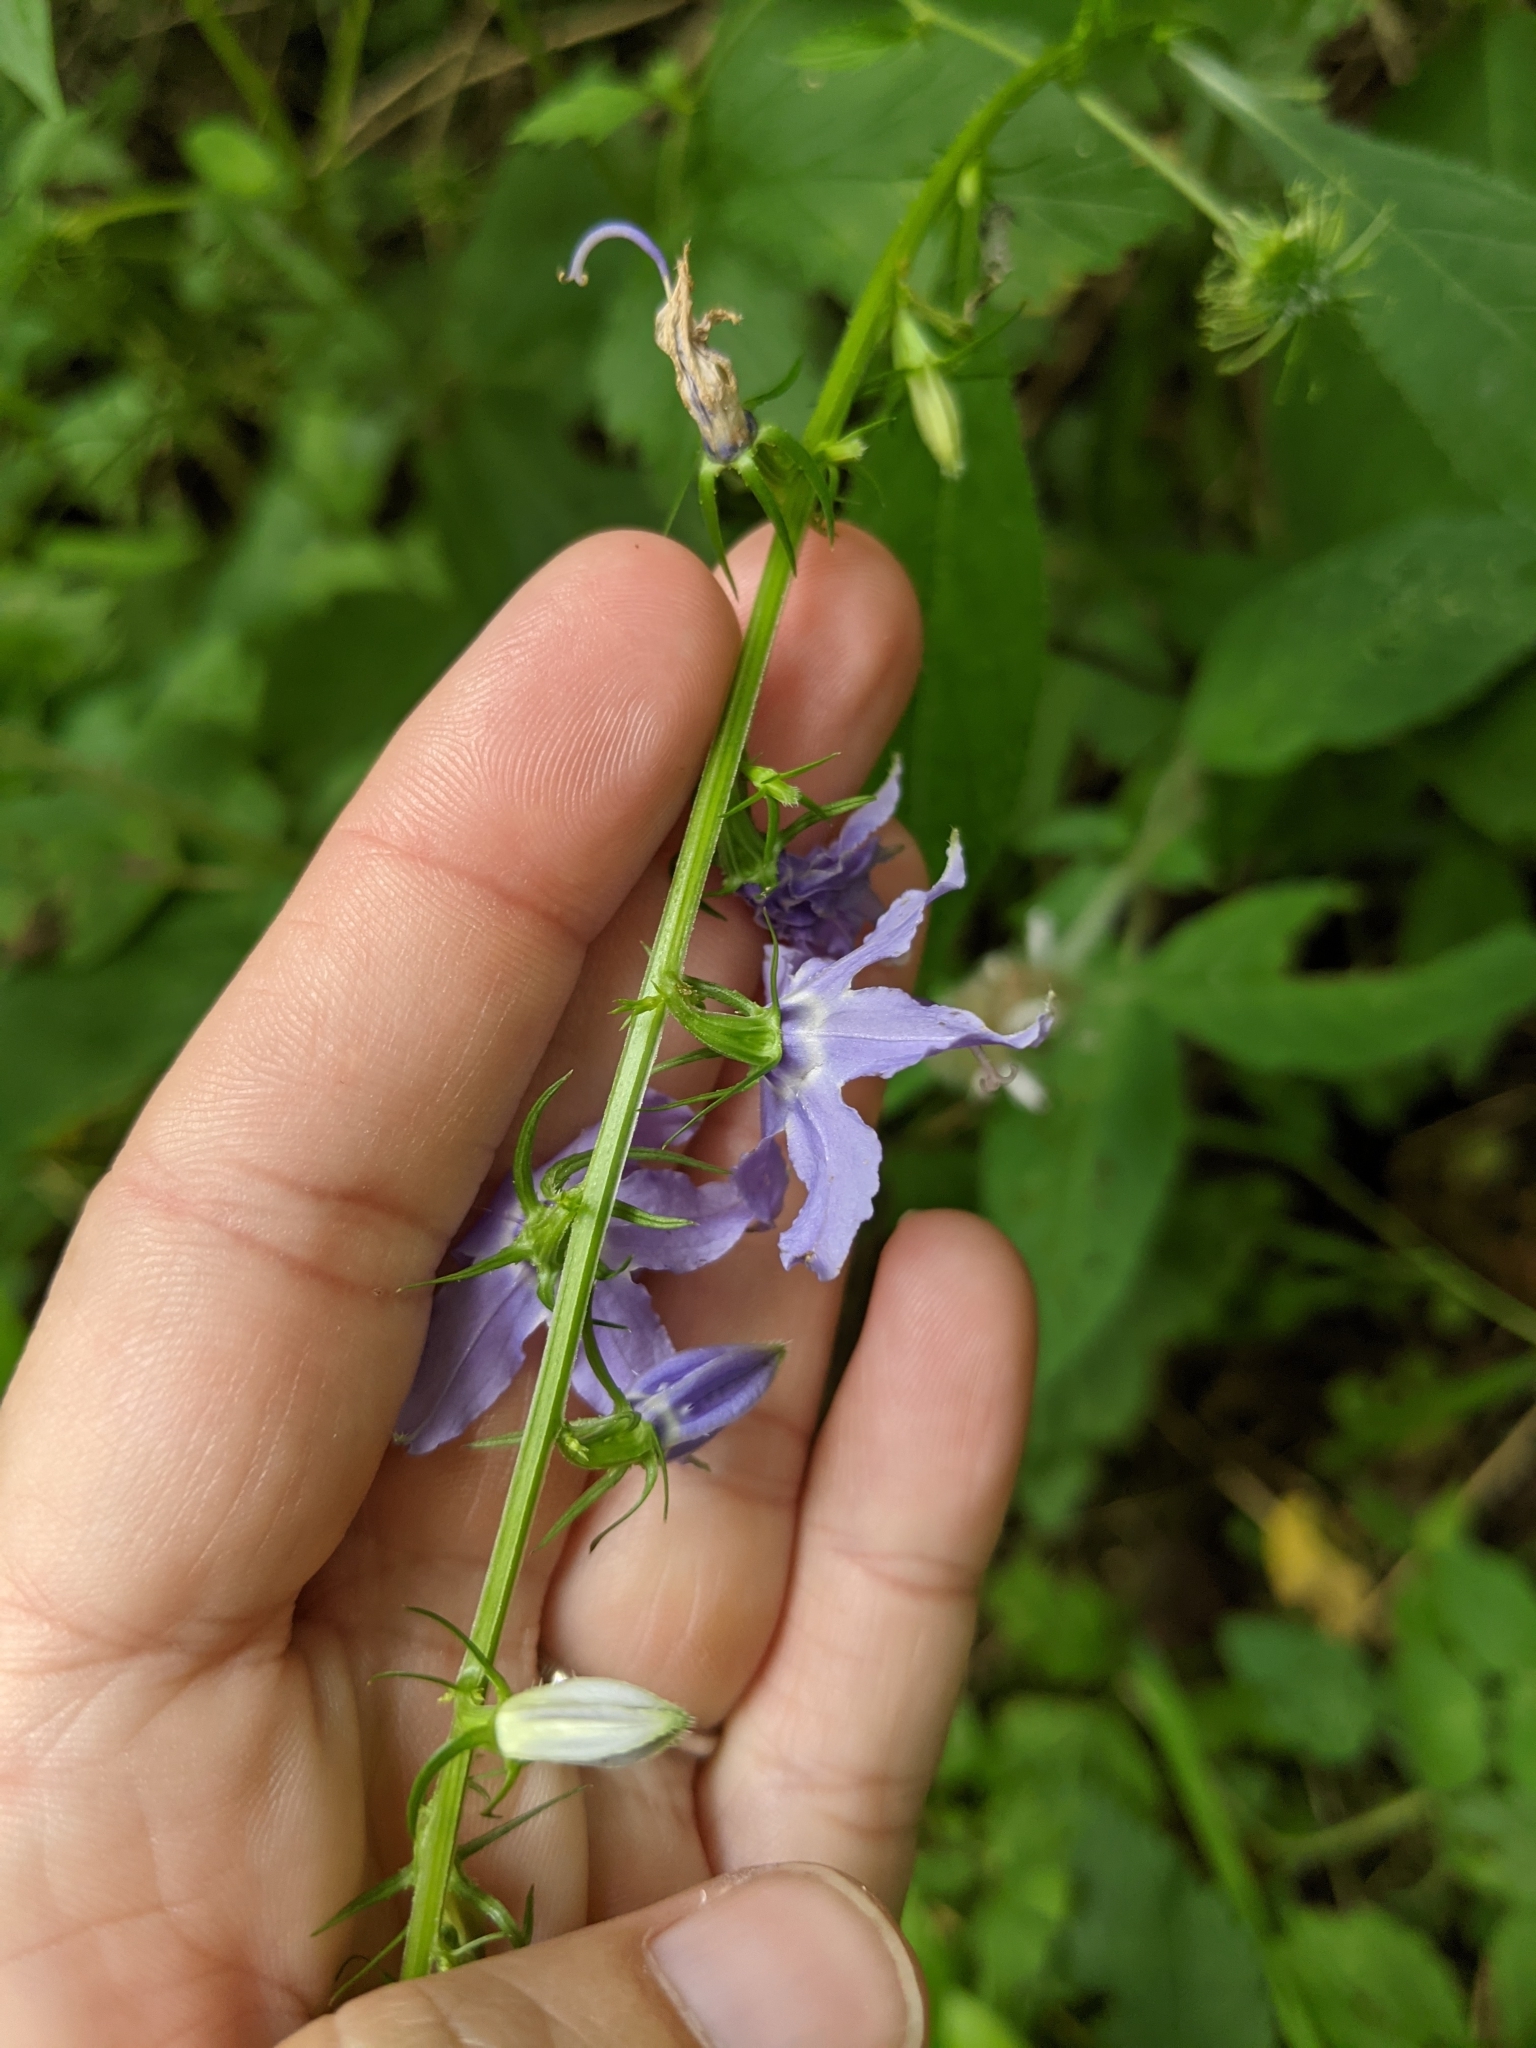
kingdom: Plantae
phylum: Tracheophyta
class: Magnoliopsida
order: Asterales
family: Campanulaceae
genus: Campanulastrum
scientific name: Campanulastrum americanum
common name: American bellflower
